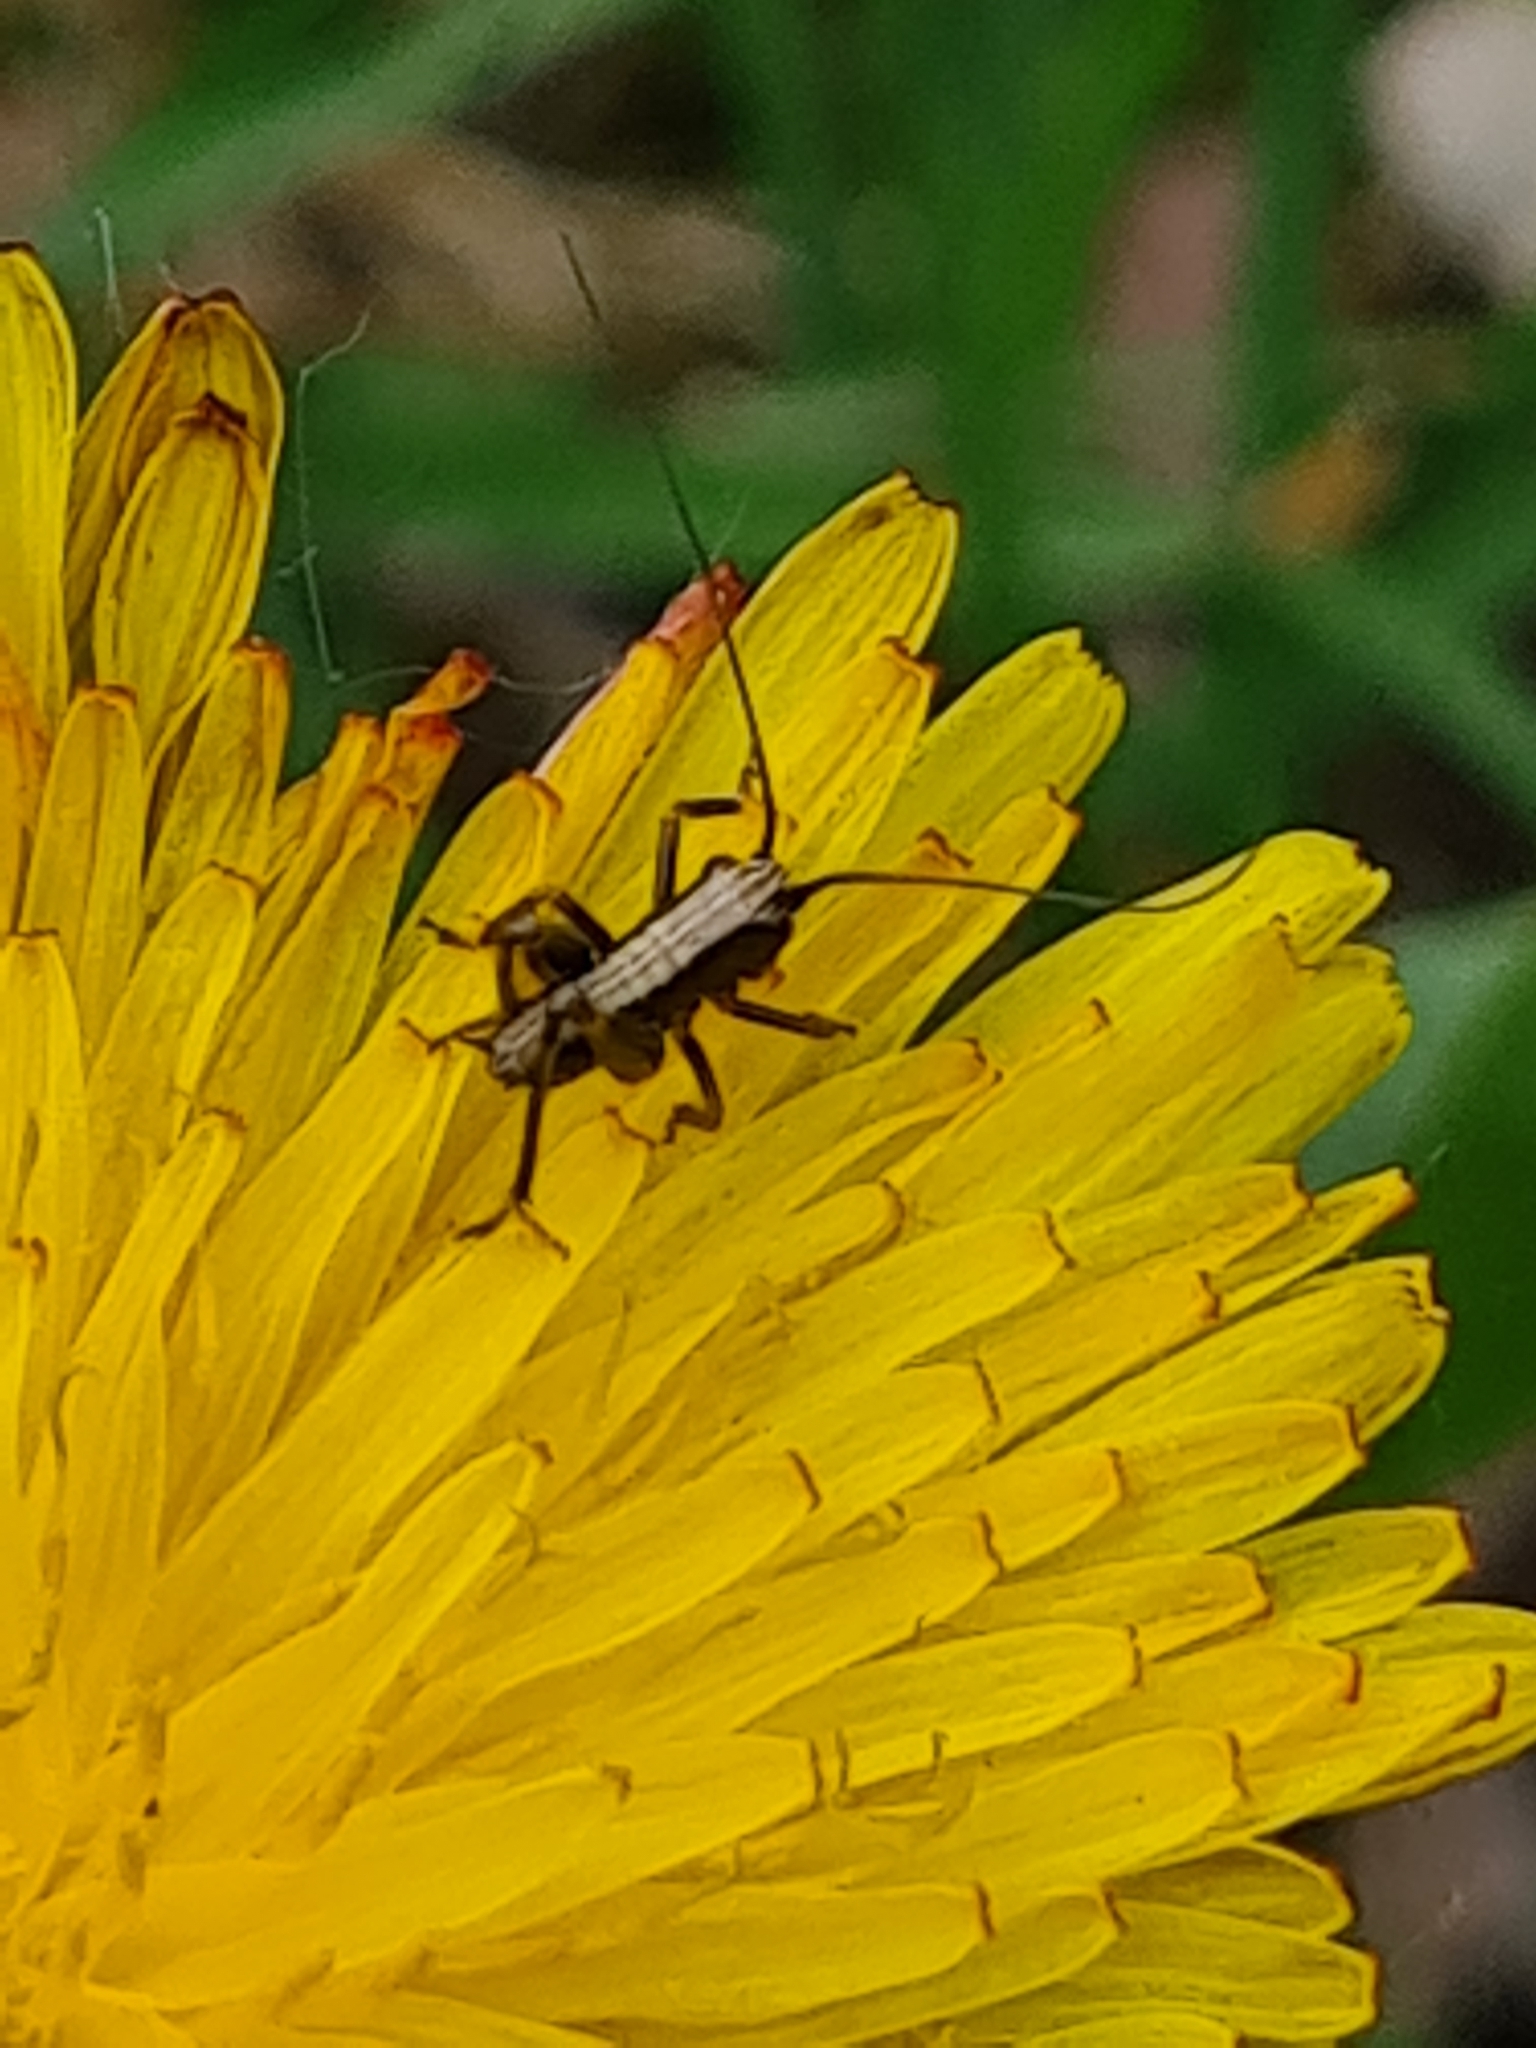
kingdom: Animalia
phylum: Arthropoda
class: Insecta
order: Orthoptera
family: Tettigoniidae
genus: Pholidoptera
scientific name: Pholidoptera griseoaptera
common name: Dark bush-cricket
